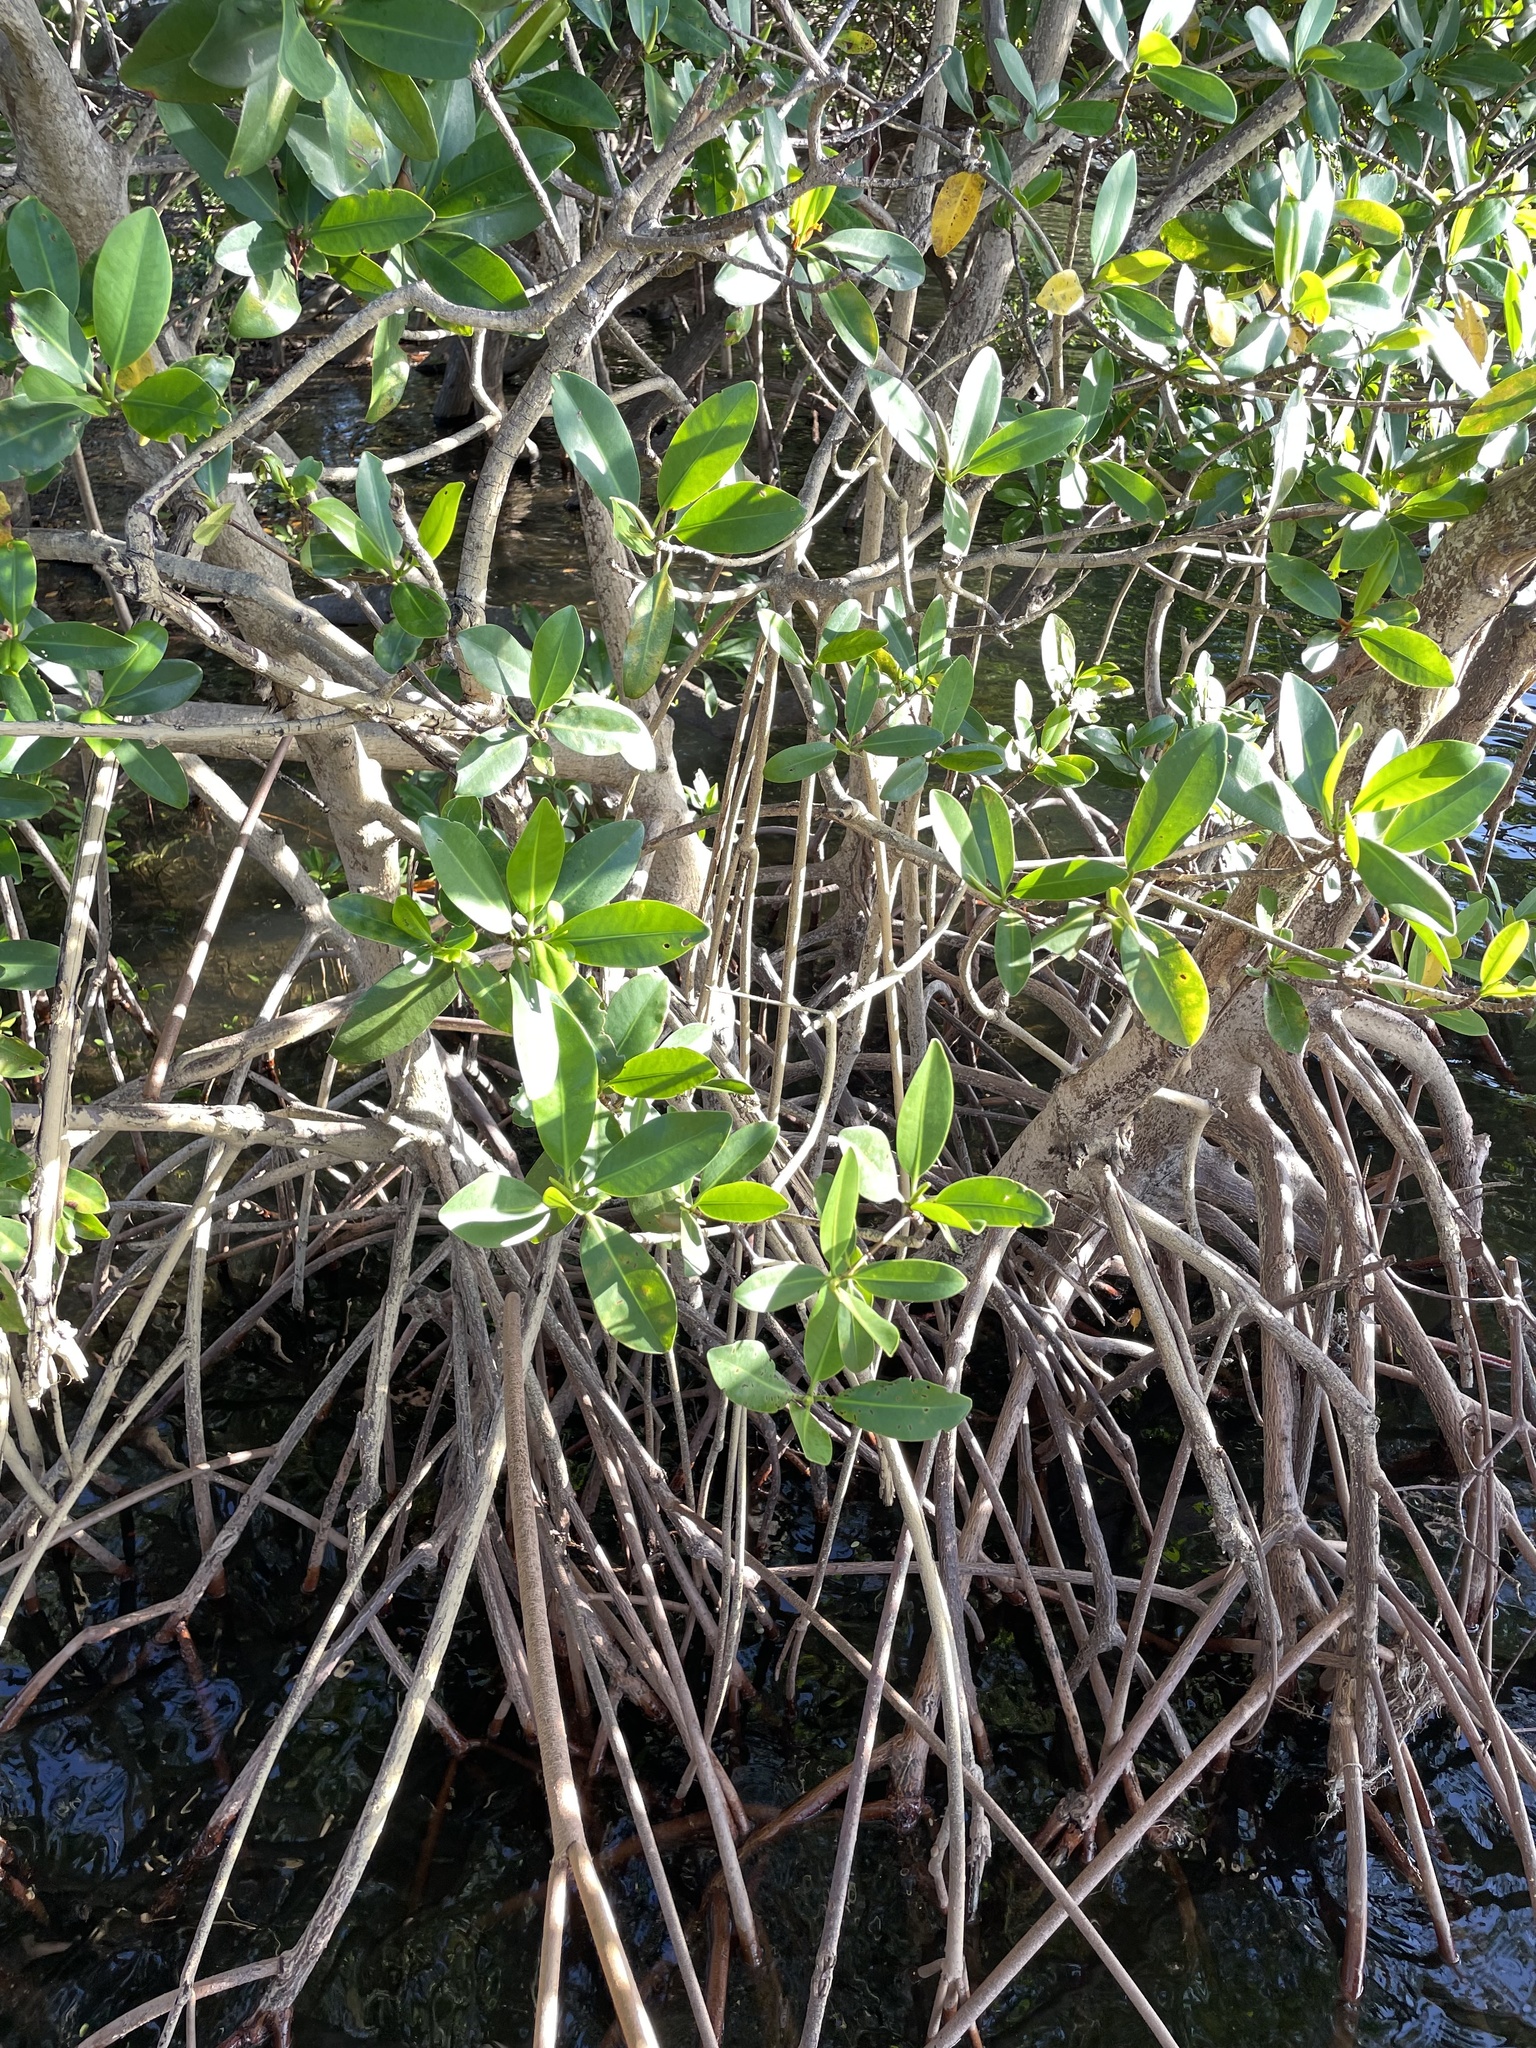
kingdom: Plantae
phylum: Tracheophyta
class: Magnoliopsida
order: Malpighiales
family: Rhizophoraceae
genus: Rhizophora
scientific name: Rhizophora mangle
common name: Red mangrove
